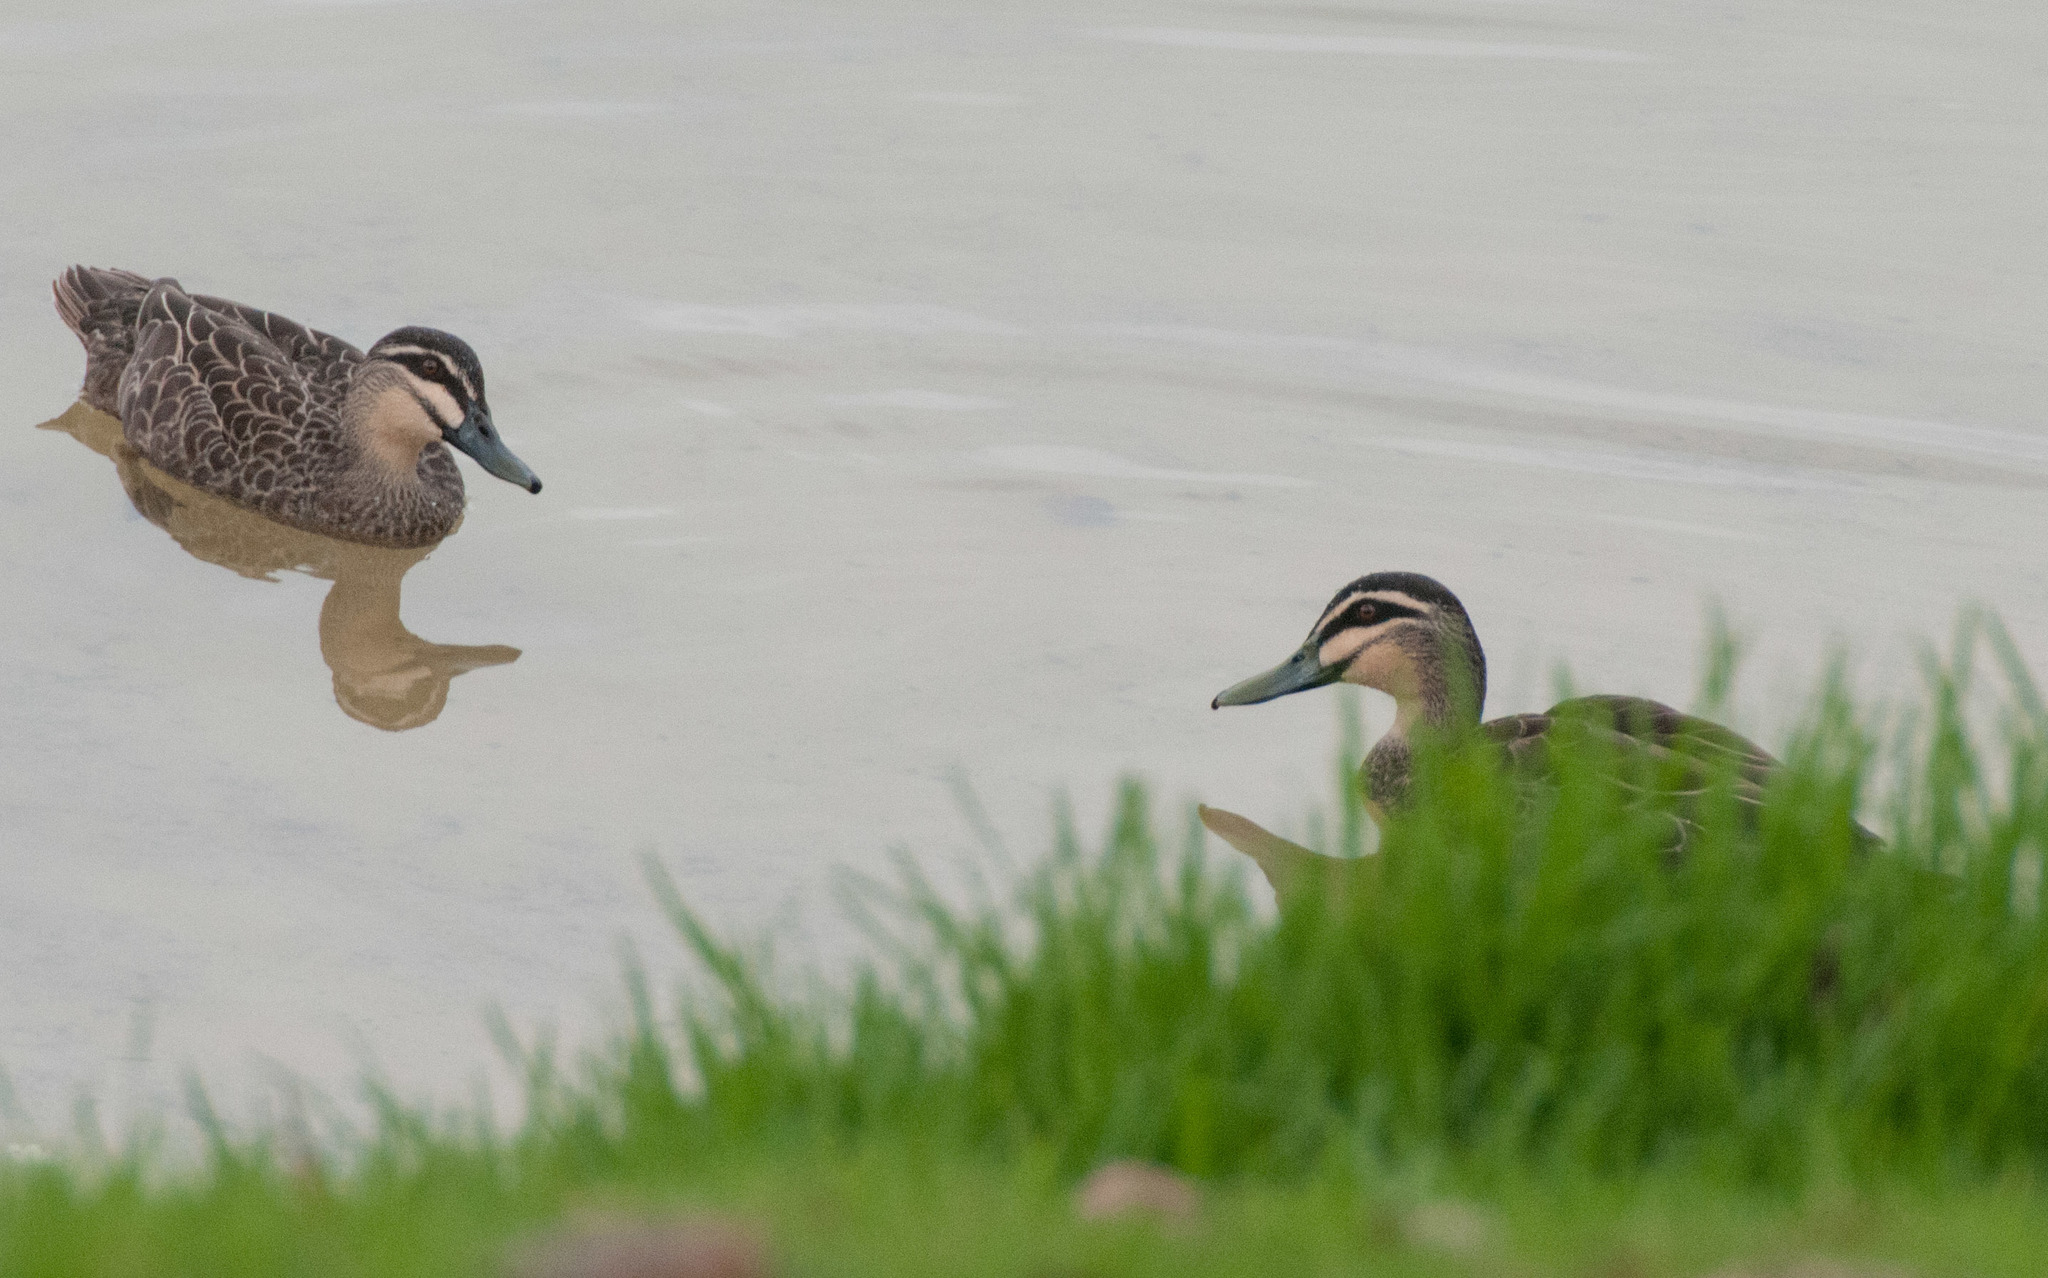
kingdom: Animalia
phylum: Chordata
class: Aves
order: Anseriformes
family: Anatidae
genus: Anas
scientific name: Anas superciliosa
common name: Pacific black duck
